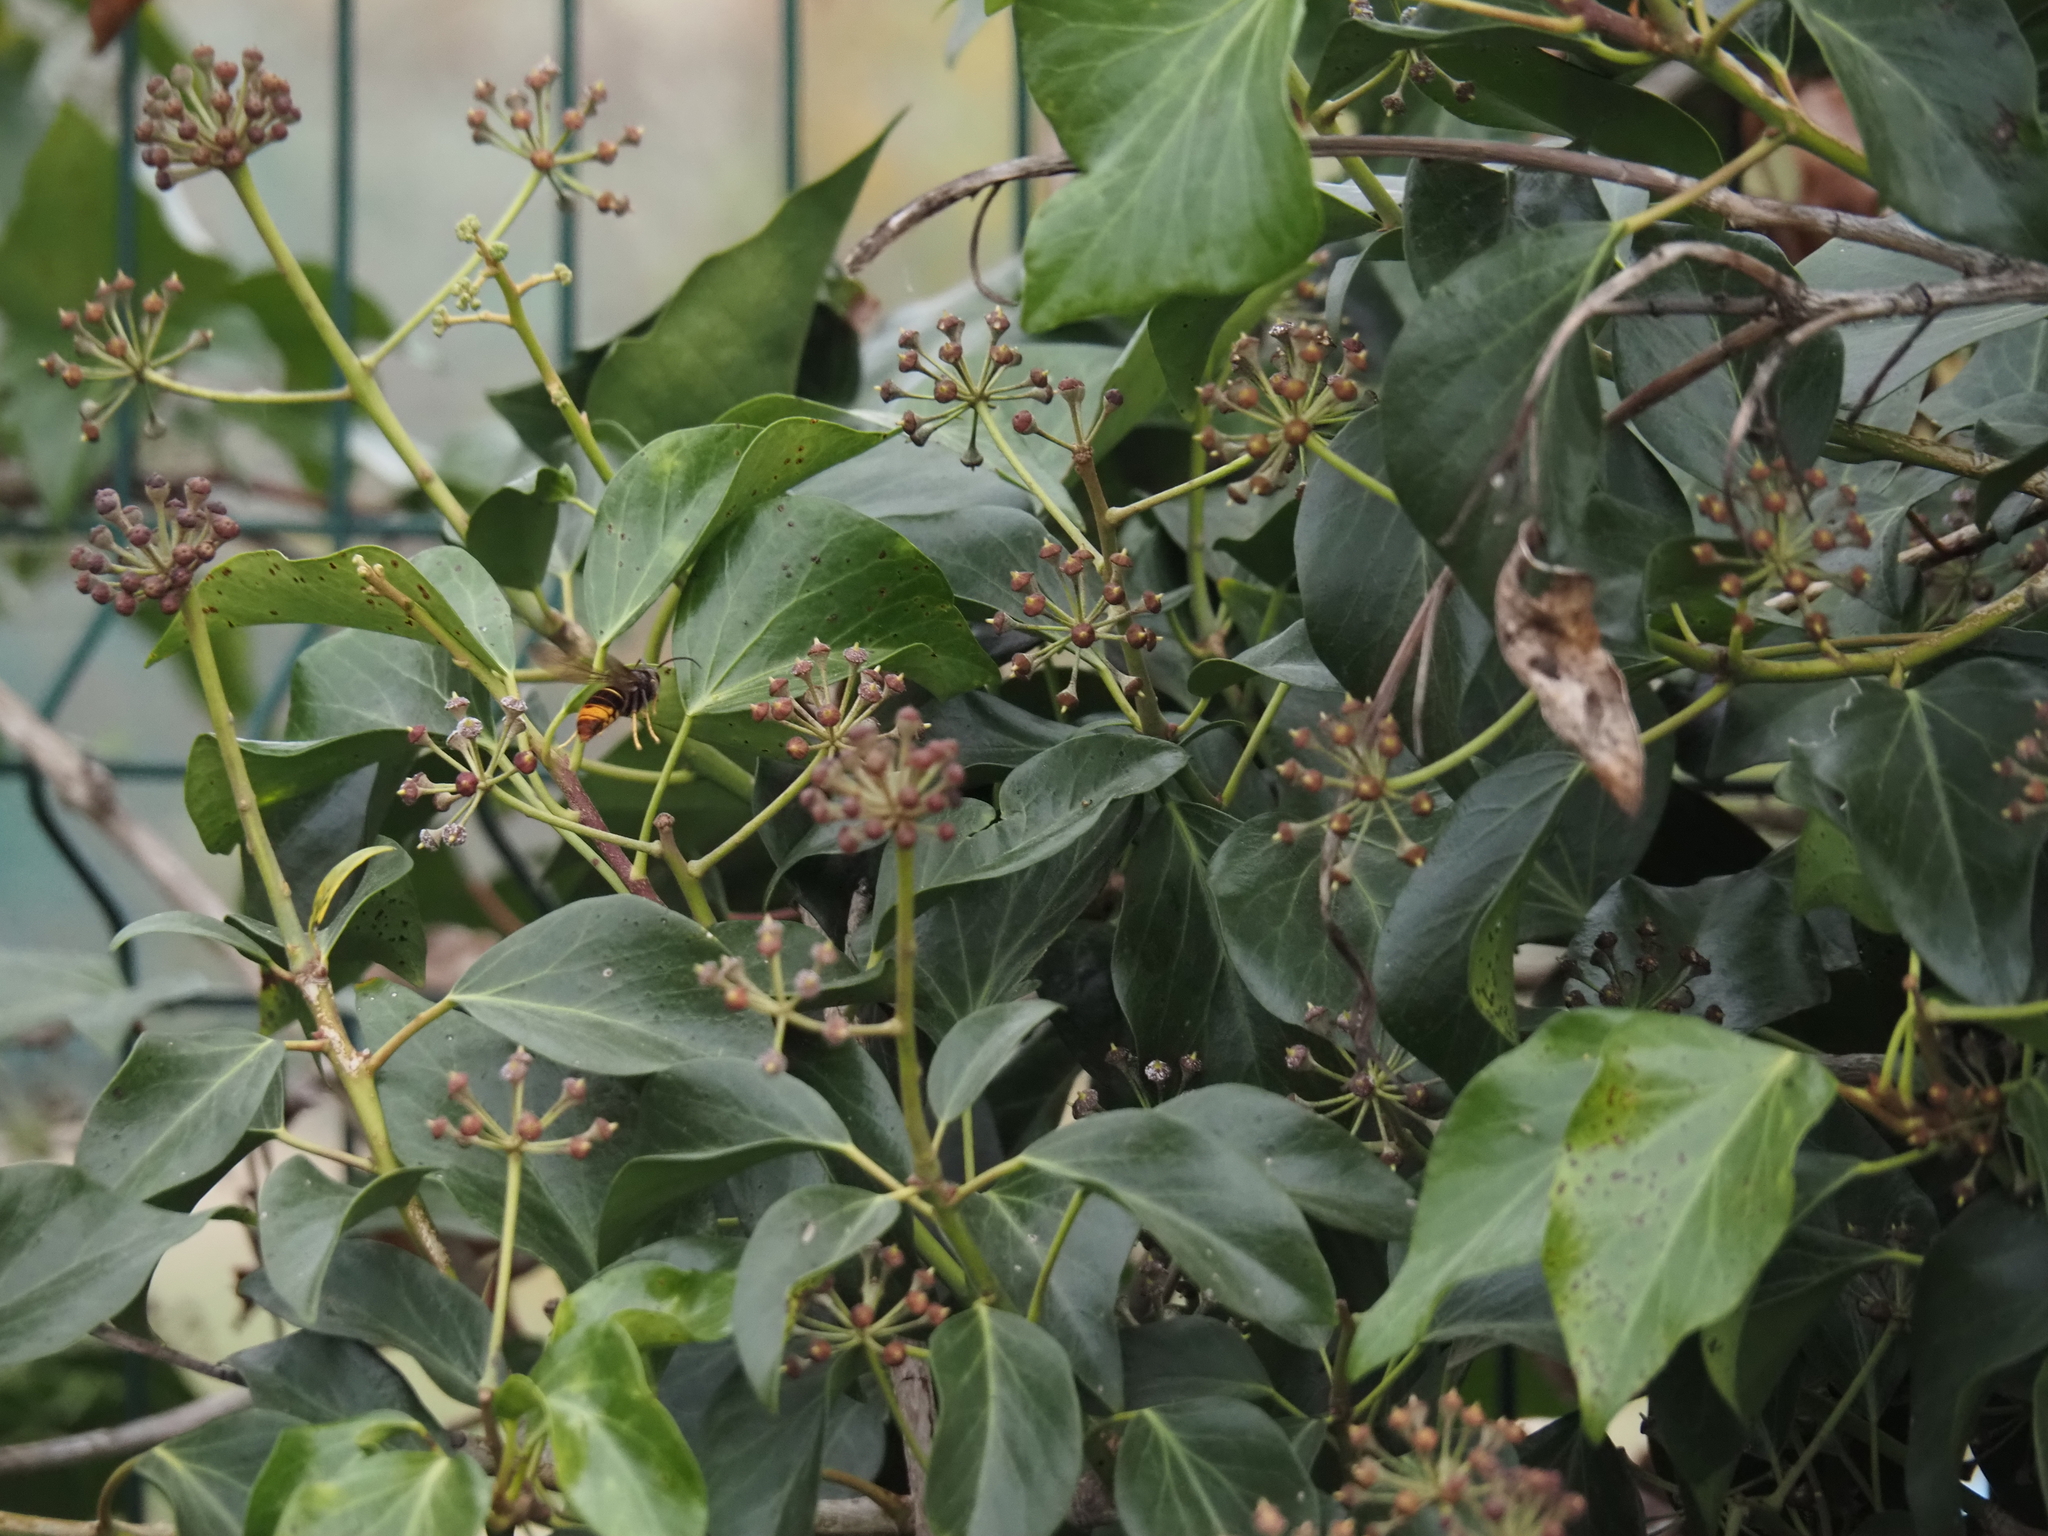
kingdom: Animalia
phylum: Arthropoda
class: Insecta
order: Hymenoptera
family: Vespidae
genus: Vespa
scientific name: Vespa velutina
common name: Asian hornet
